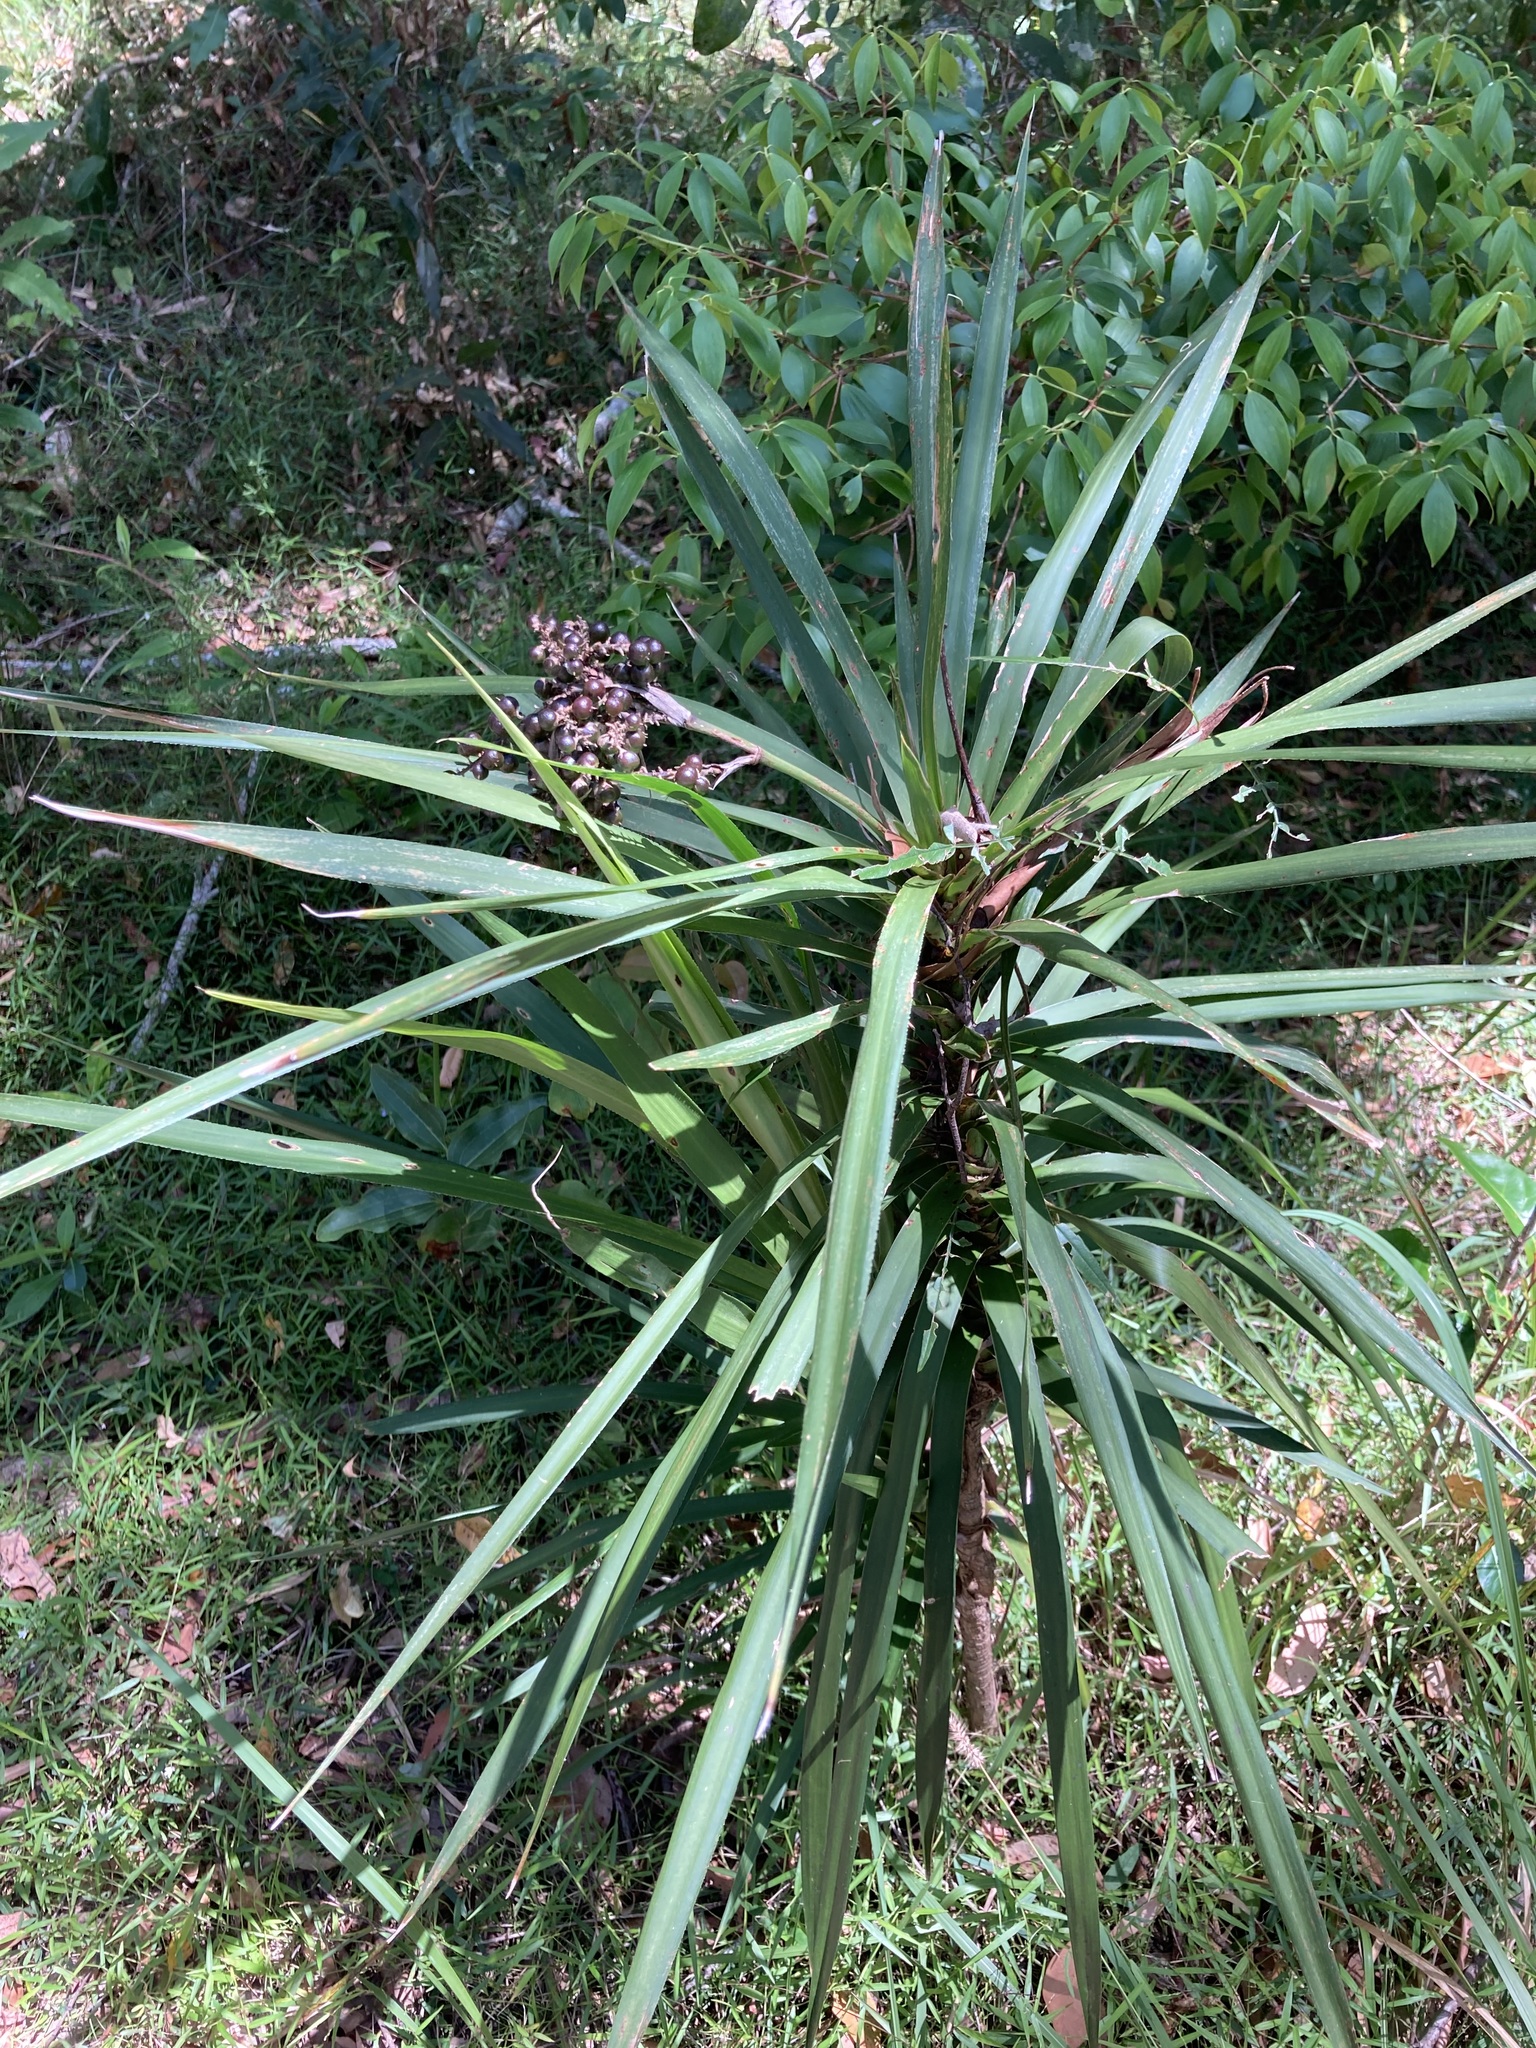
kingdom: Plantae
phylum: Tracheophyta
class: Liliopsida
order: Asparagales
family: Asparagaceae
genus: Cordyline
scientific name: Cordyline stricta
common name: Narrow-leaf palm-lily
